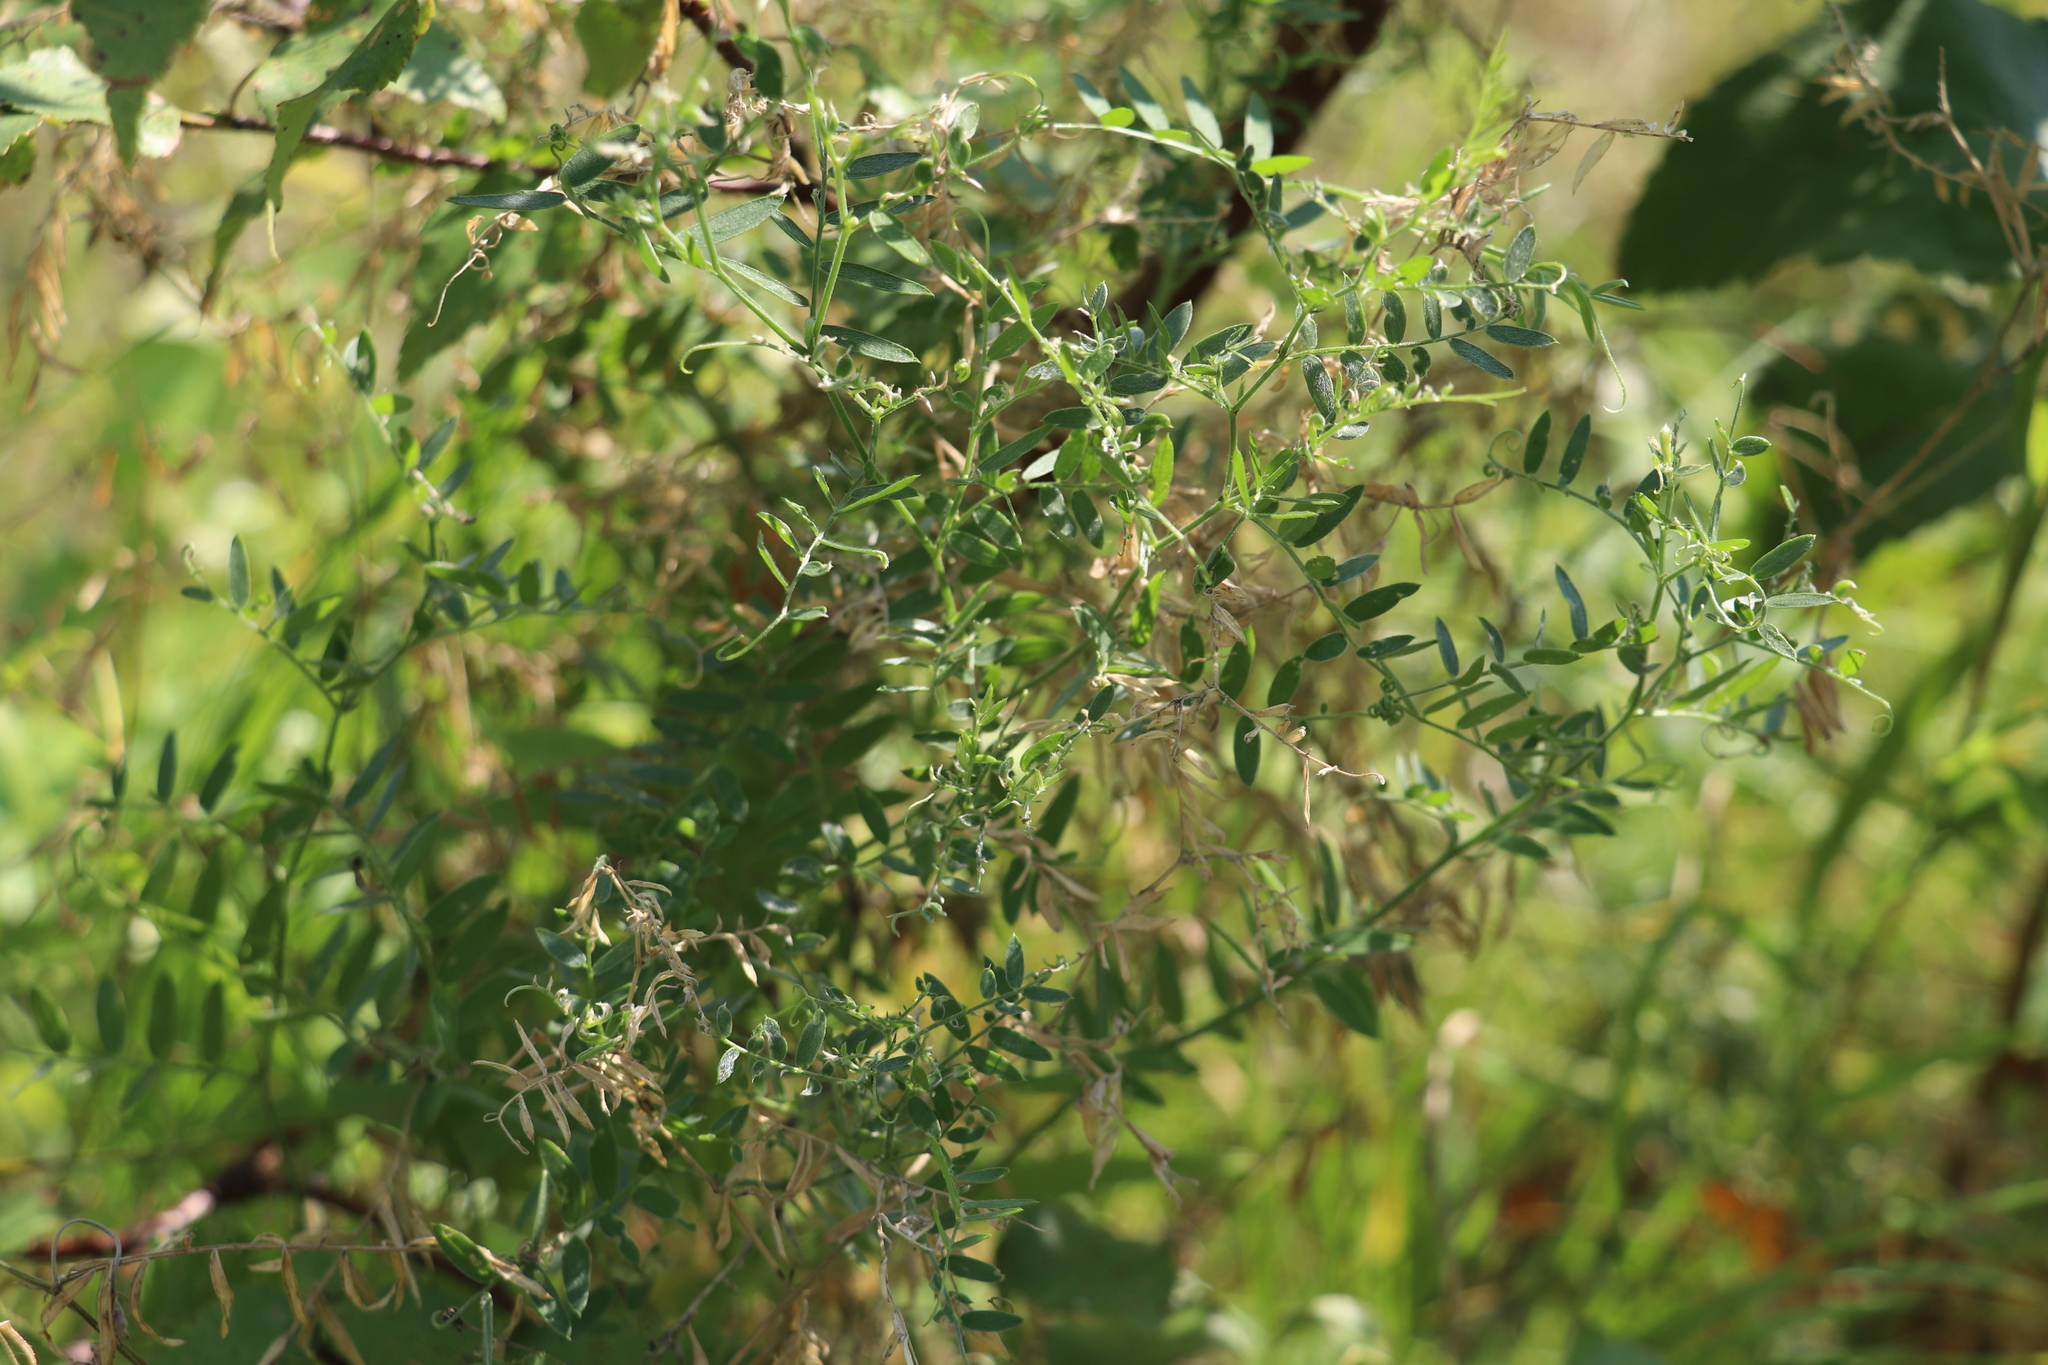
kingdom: Plantae
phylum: Tracheophyta
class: Magnoliopsida
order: Fabales
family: Fabaceae
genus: Vicia
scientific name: Vicia cracca
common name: Bird vetch
